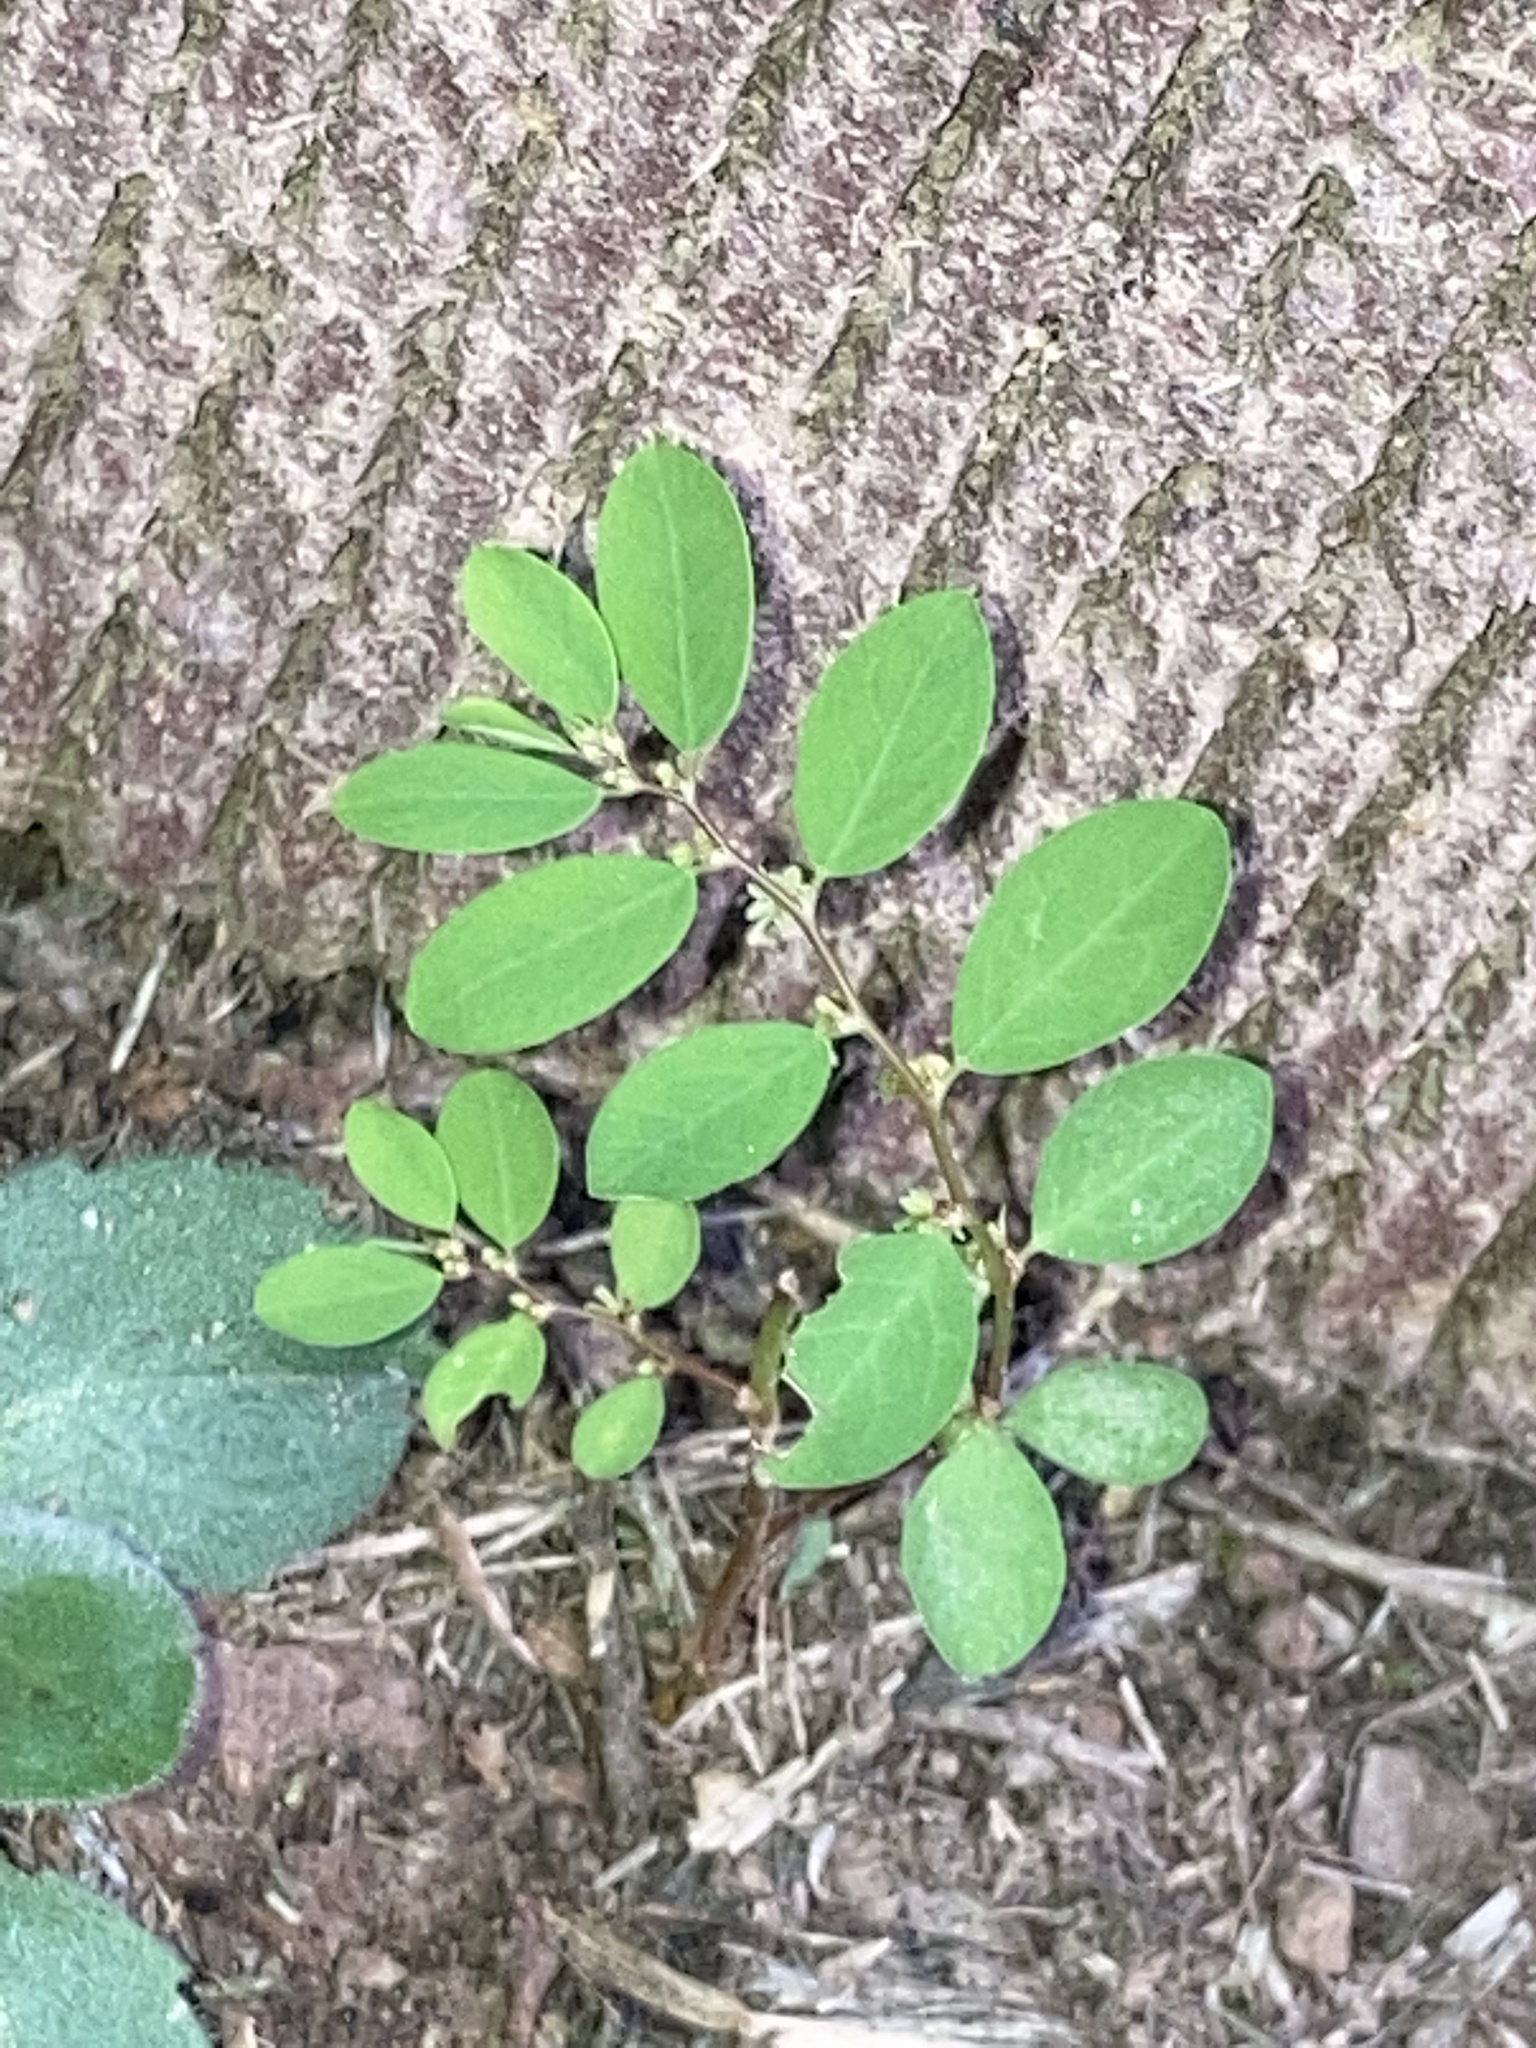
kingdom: Plantae
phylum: Tracheophyta
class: Magnoliopsida
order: Malpighiales
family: Phyllanthaceae
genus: Phyllanthus
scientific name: Phyllanthus caroliniensis
